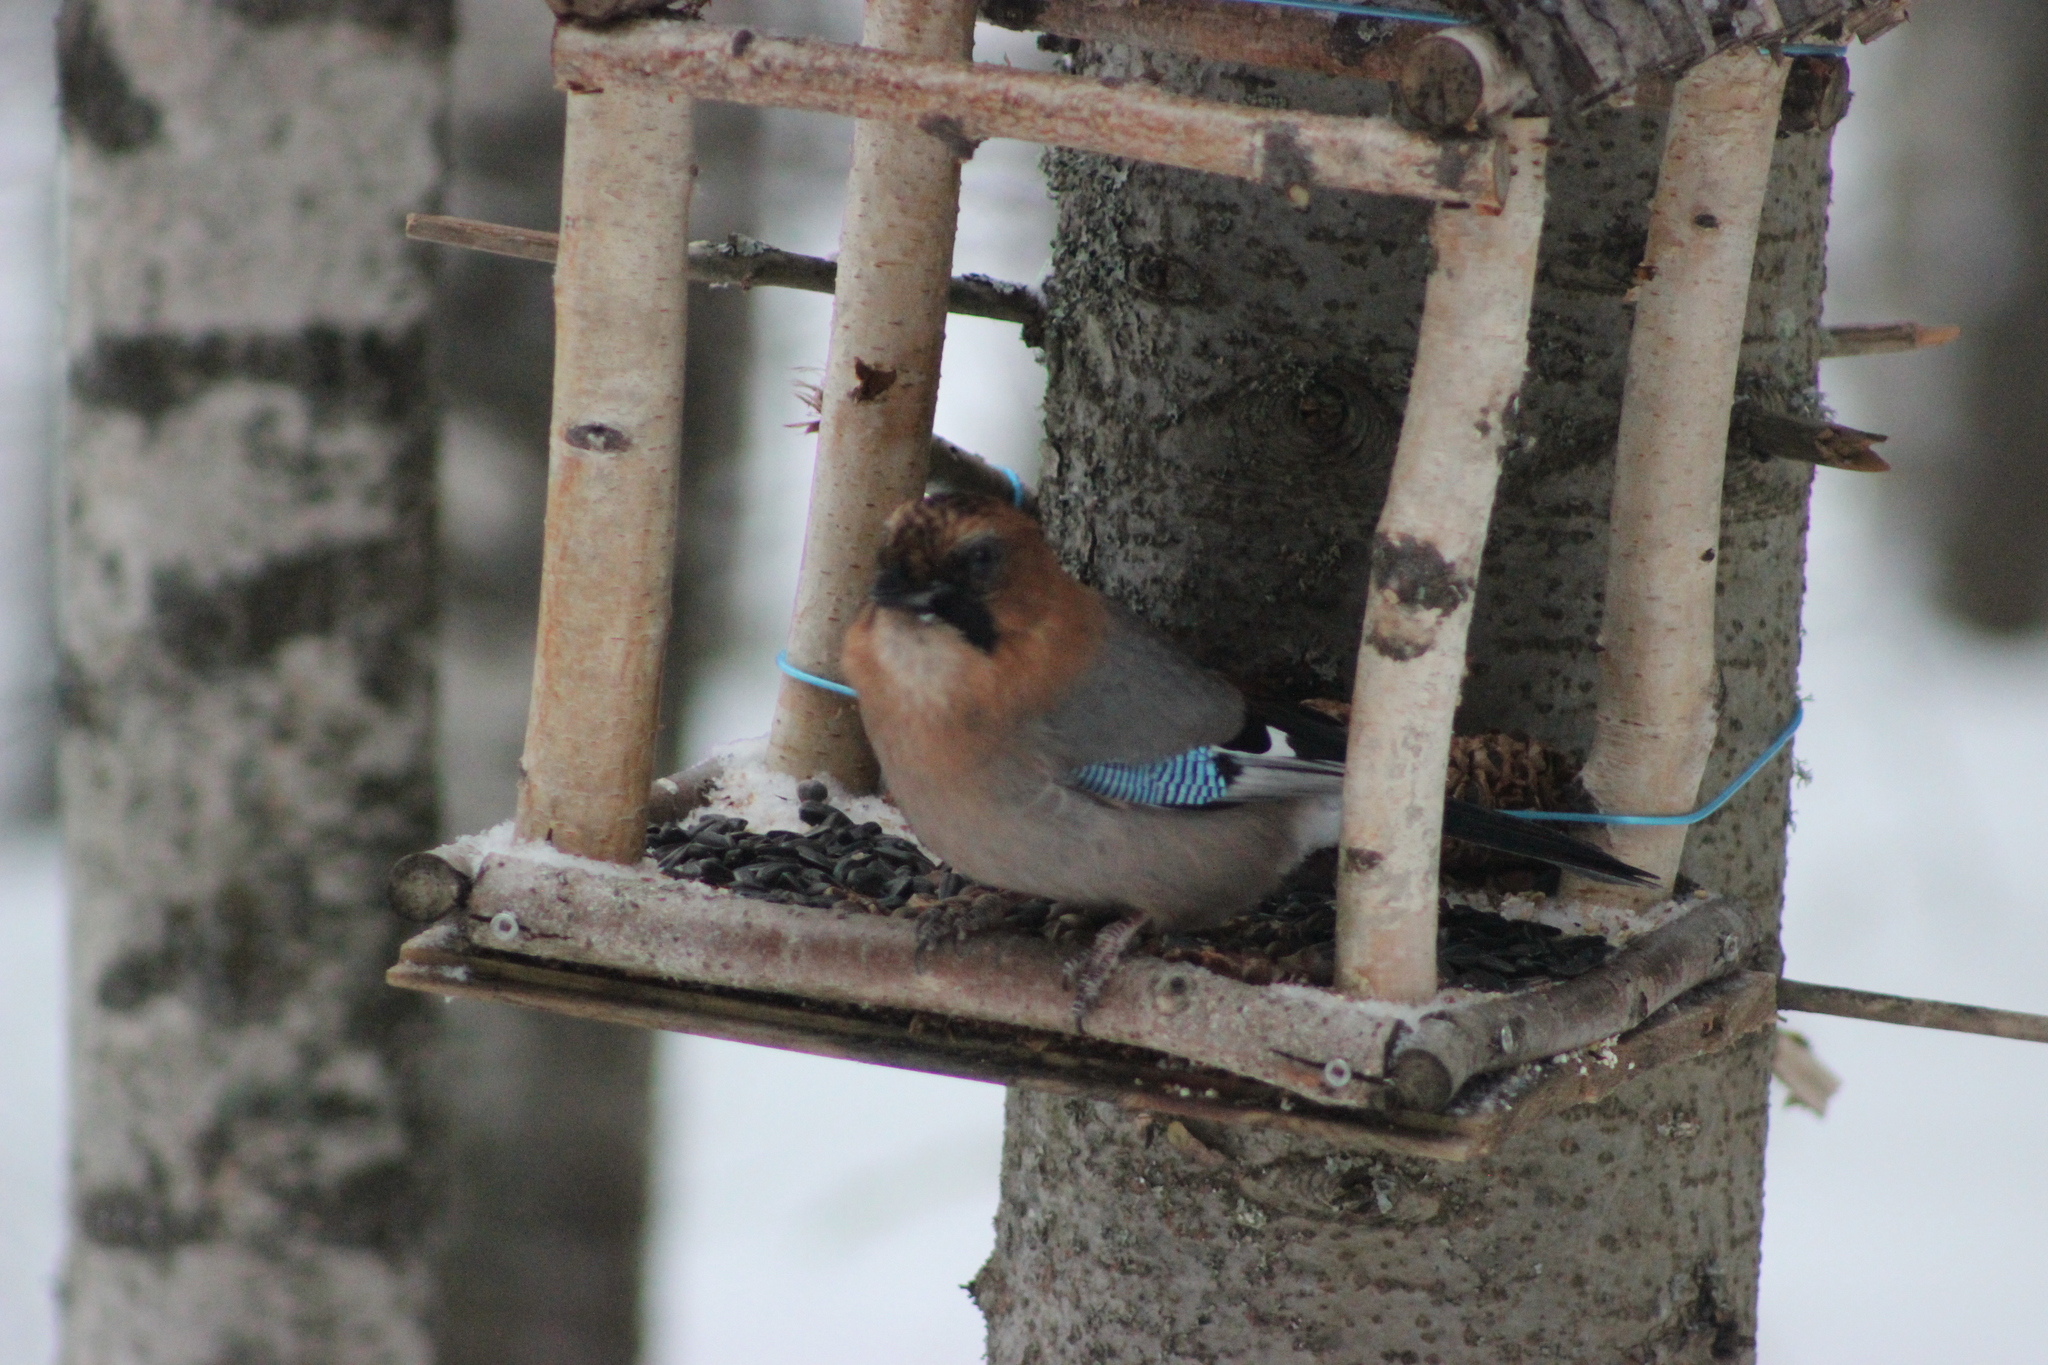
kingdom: Animalia
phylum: Chordata
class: Aves
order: Passeriformes
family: Corvidae
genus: Garrulus
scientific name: Garrulus glandarius
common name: Eurasian jay
